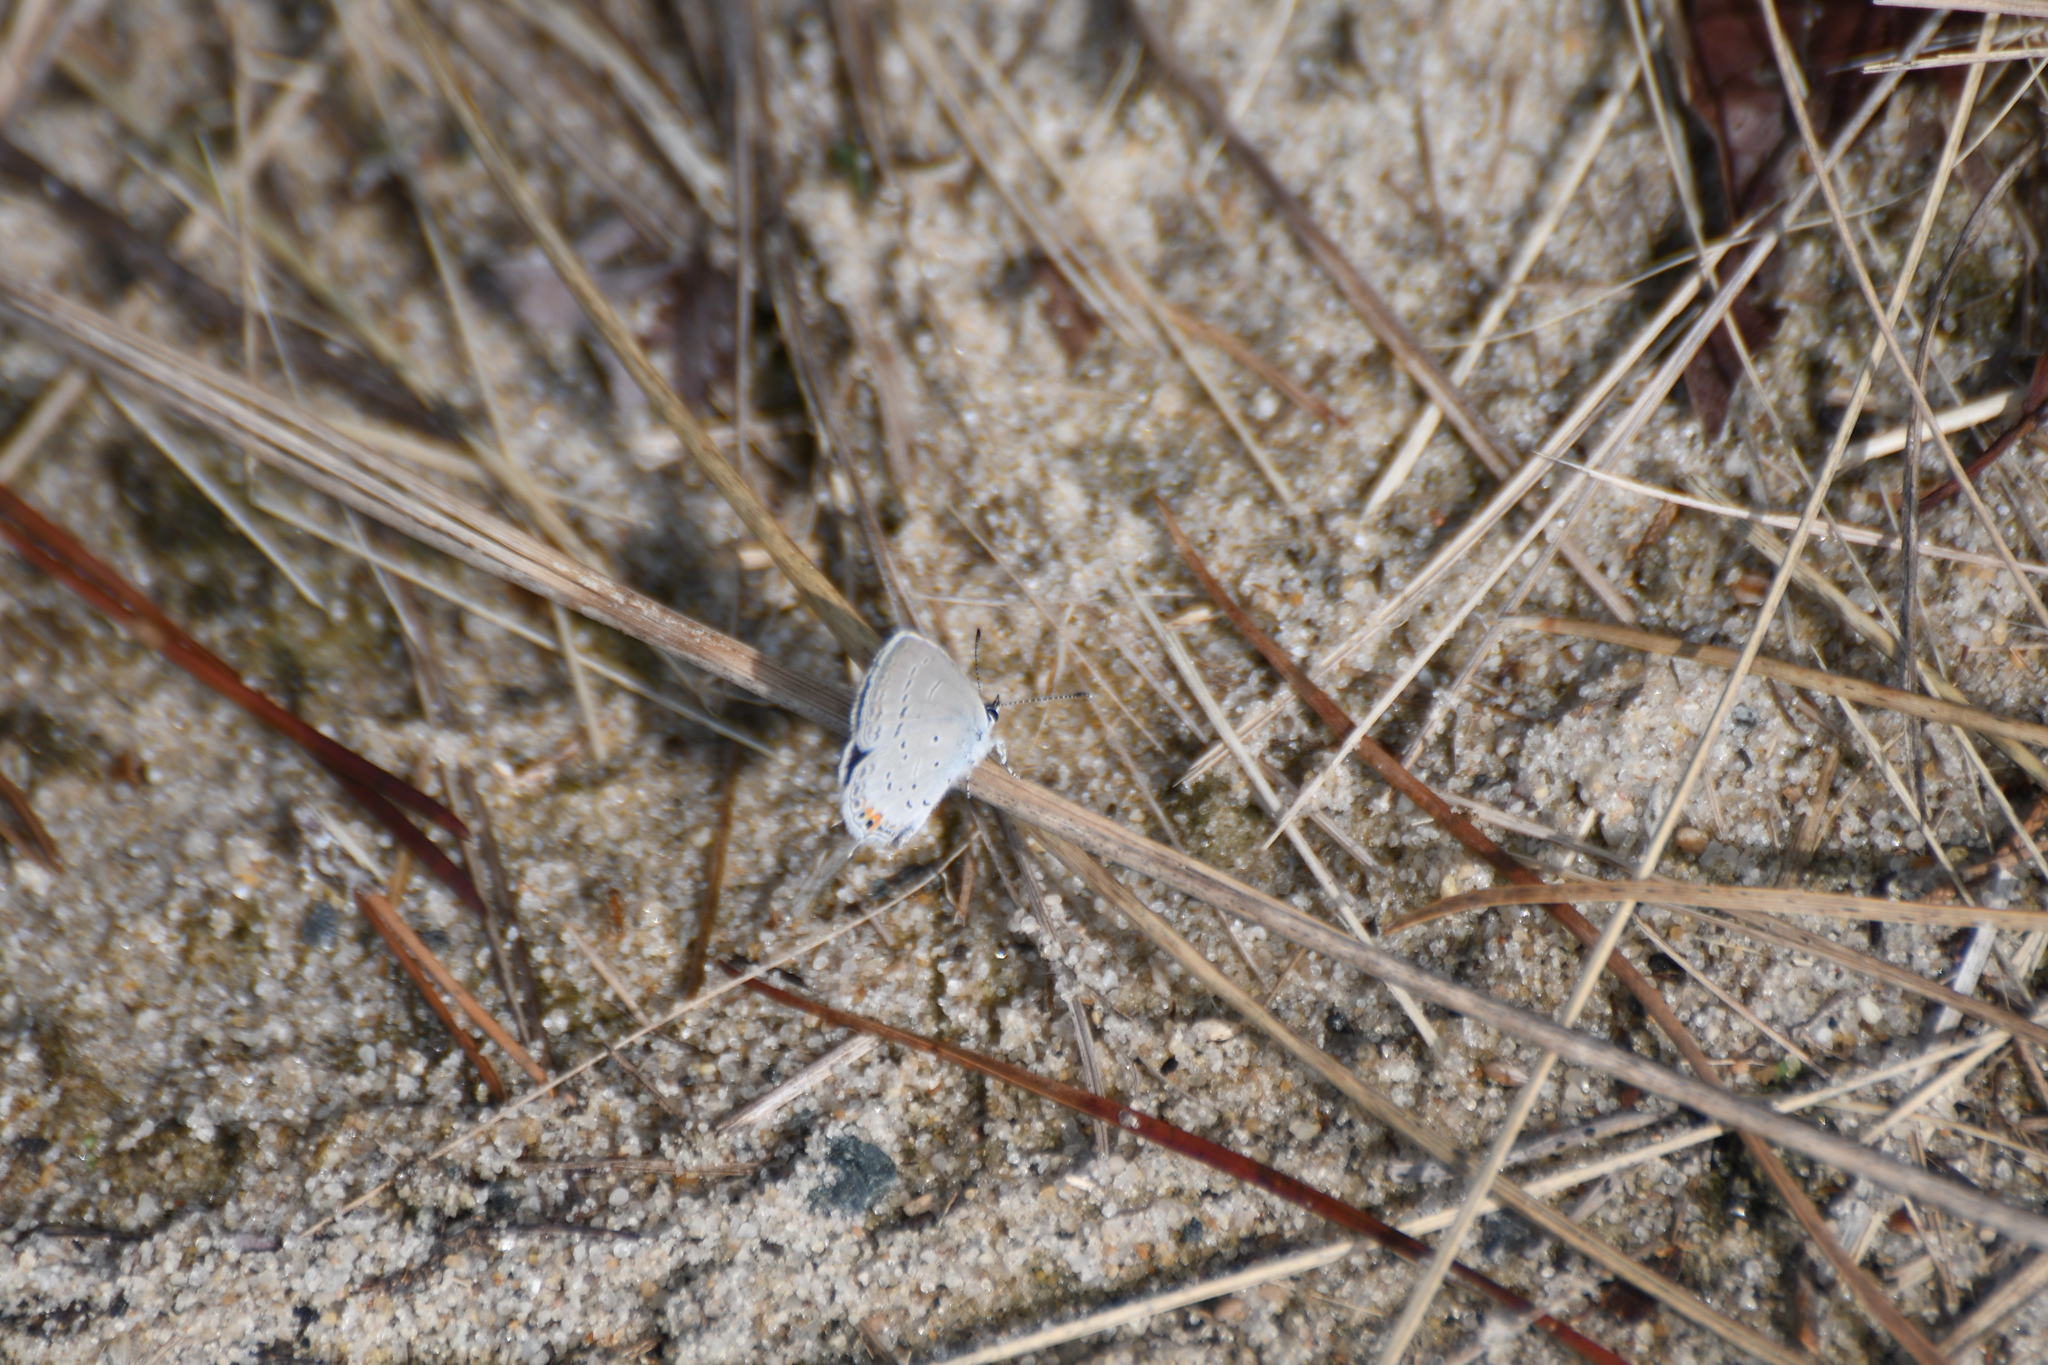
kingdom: Animalia
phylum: Arthropoda
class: Insecta
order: Lepidoptera
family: Lycaenidae
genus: Elkalyce
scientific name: Elkalyce comyntas
